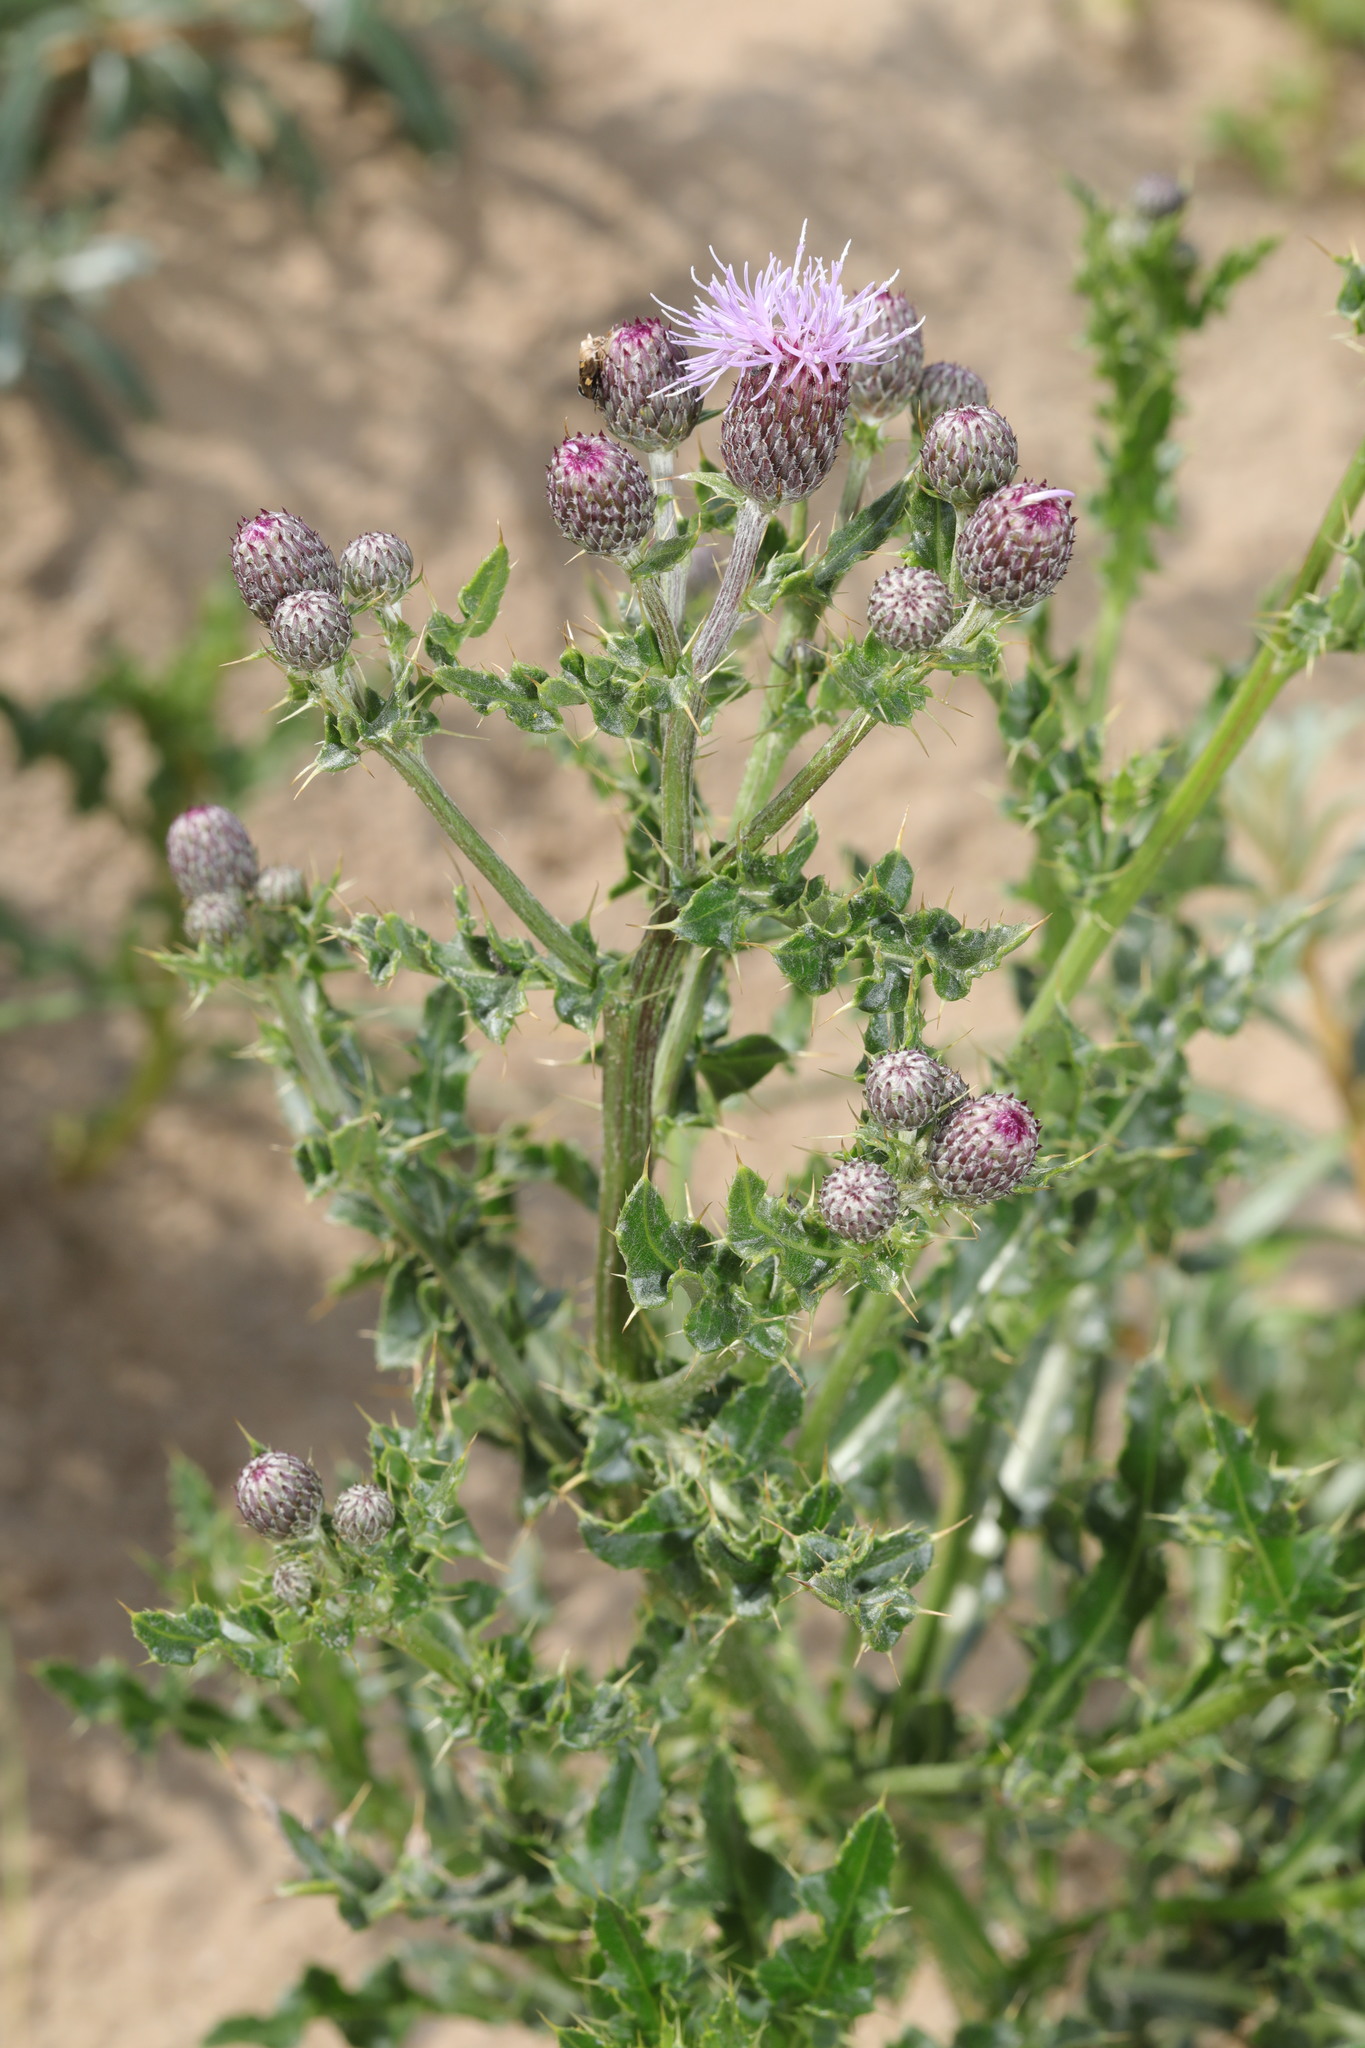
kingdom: Plantae
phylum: Tracheophyta
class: Magnoliopsida
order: Asterales
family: Asteraceae
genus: Cirsium
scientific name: Cirsium arvense
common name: Creeping thistle
